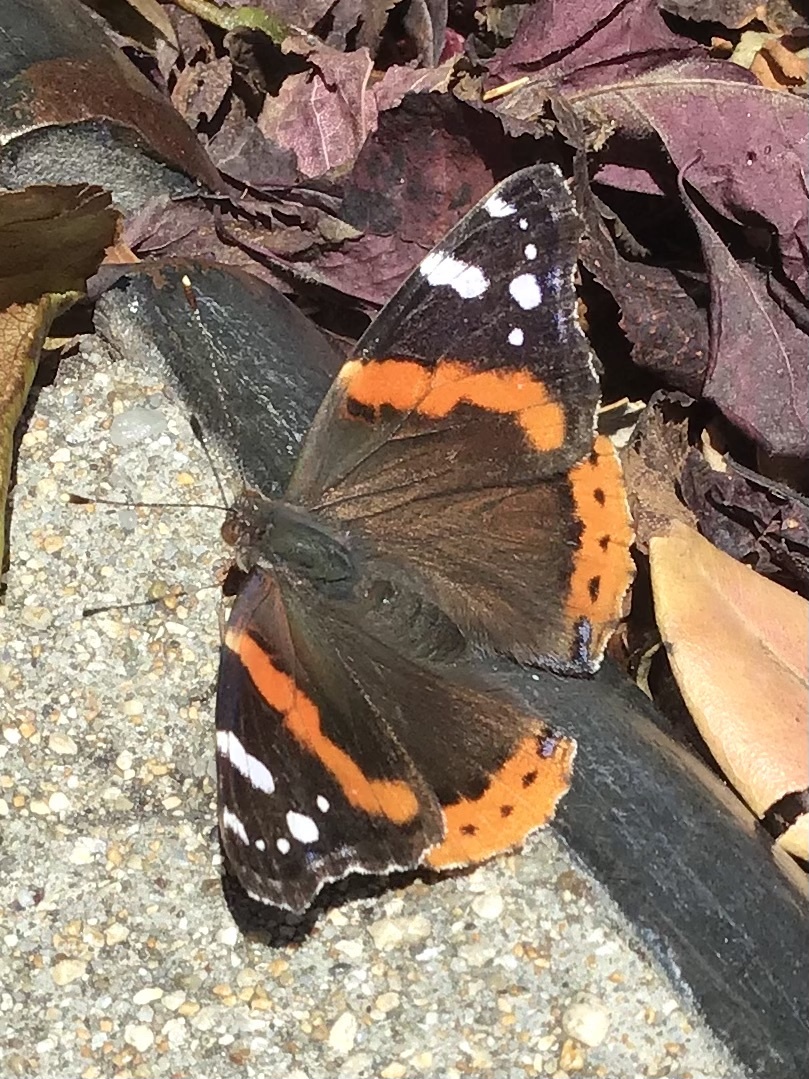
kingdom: Animalia
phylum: Arthropoda
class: Insecta
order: Lepidoptera
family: Nymphalidae
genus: Vanessa
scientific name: Vanessa atalanta
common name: Red admiral
